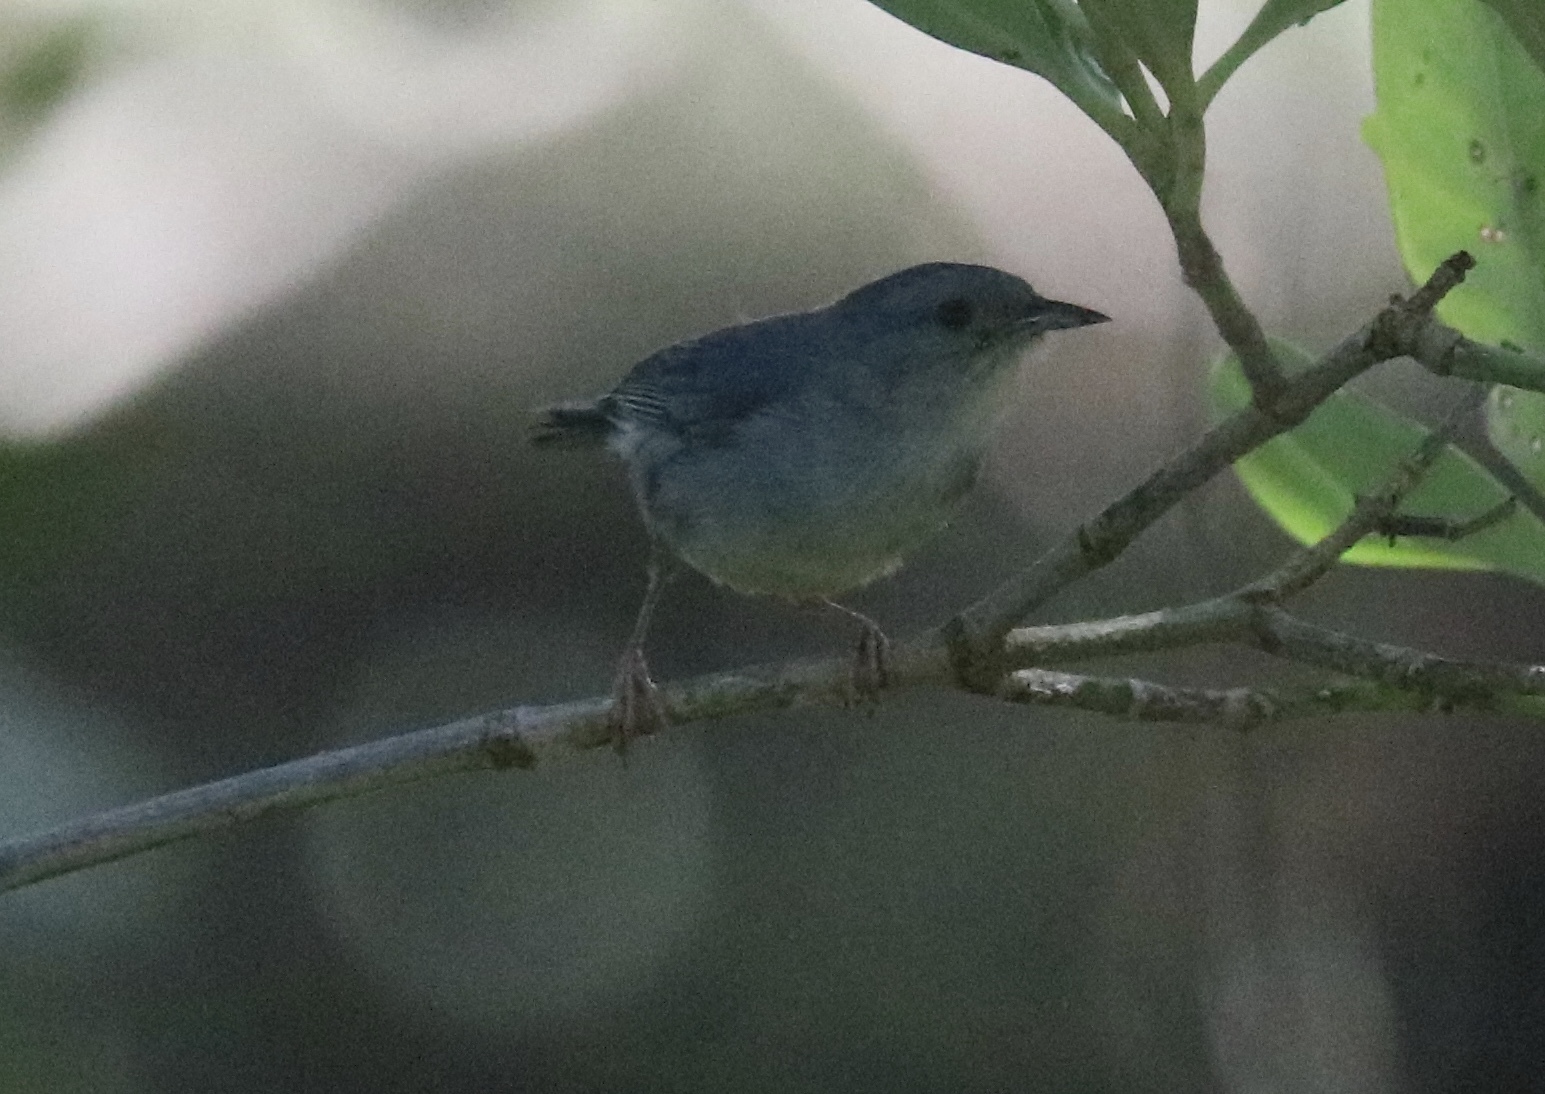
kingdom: Animalia
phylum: Chordata
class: Aves
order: Passeriformes
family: Thraupidae
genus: Conirostrum
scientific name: Conirostrum bicolor
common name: Bicolored conebill
